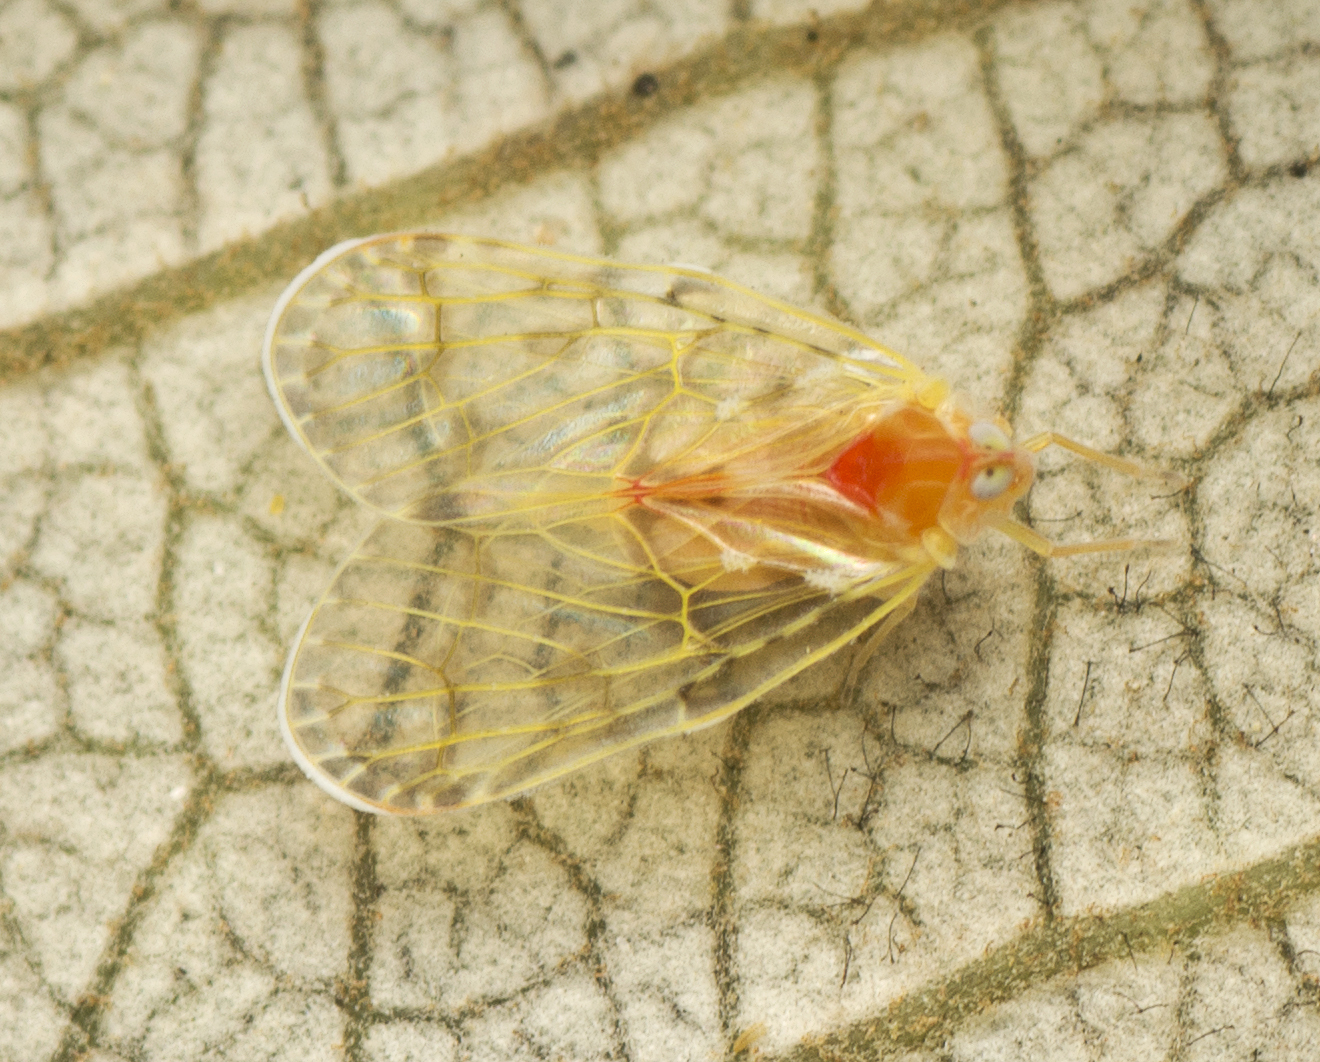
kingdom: Animalia
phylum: Arthropoda
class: Insecta
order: Hemiptera
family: Derbidae
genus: Saccharodite
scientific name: Saccharodite chrysonoe
